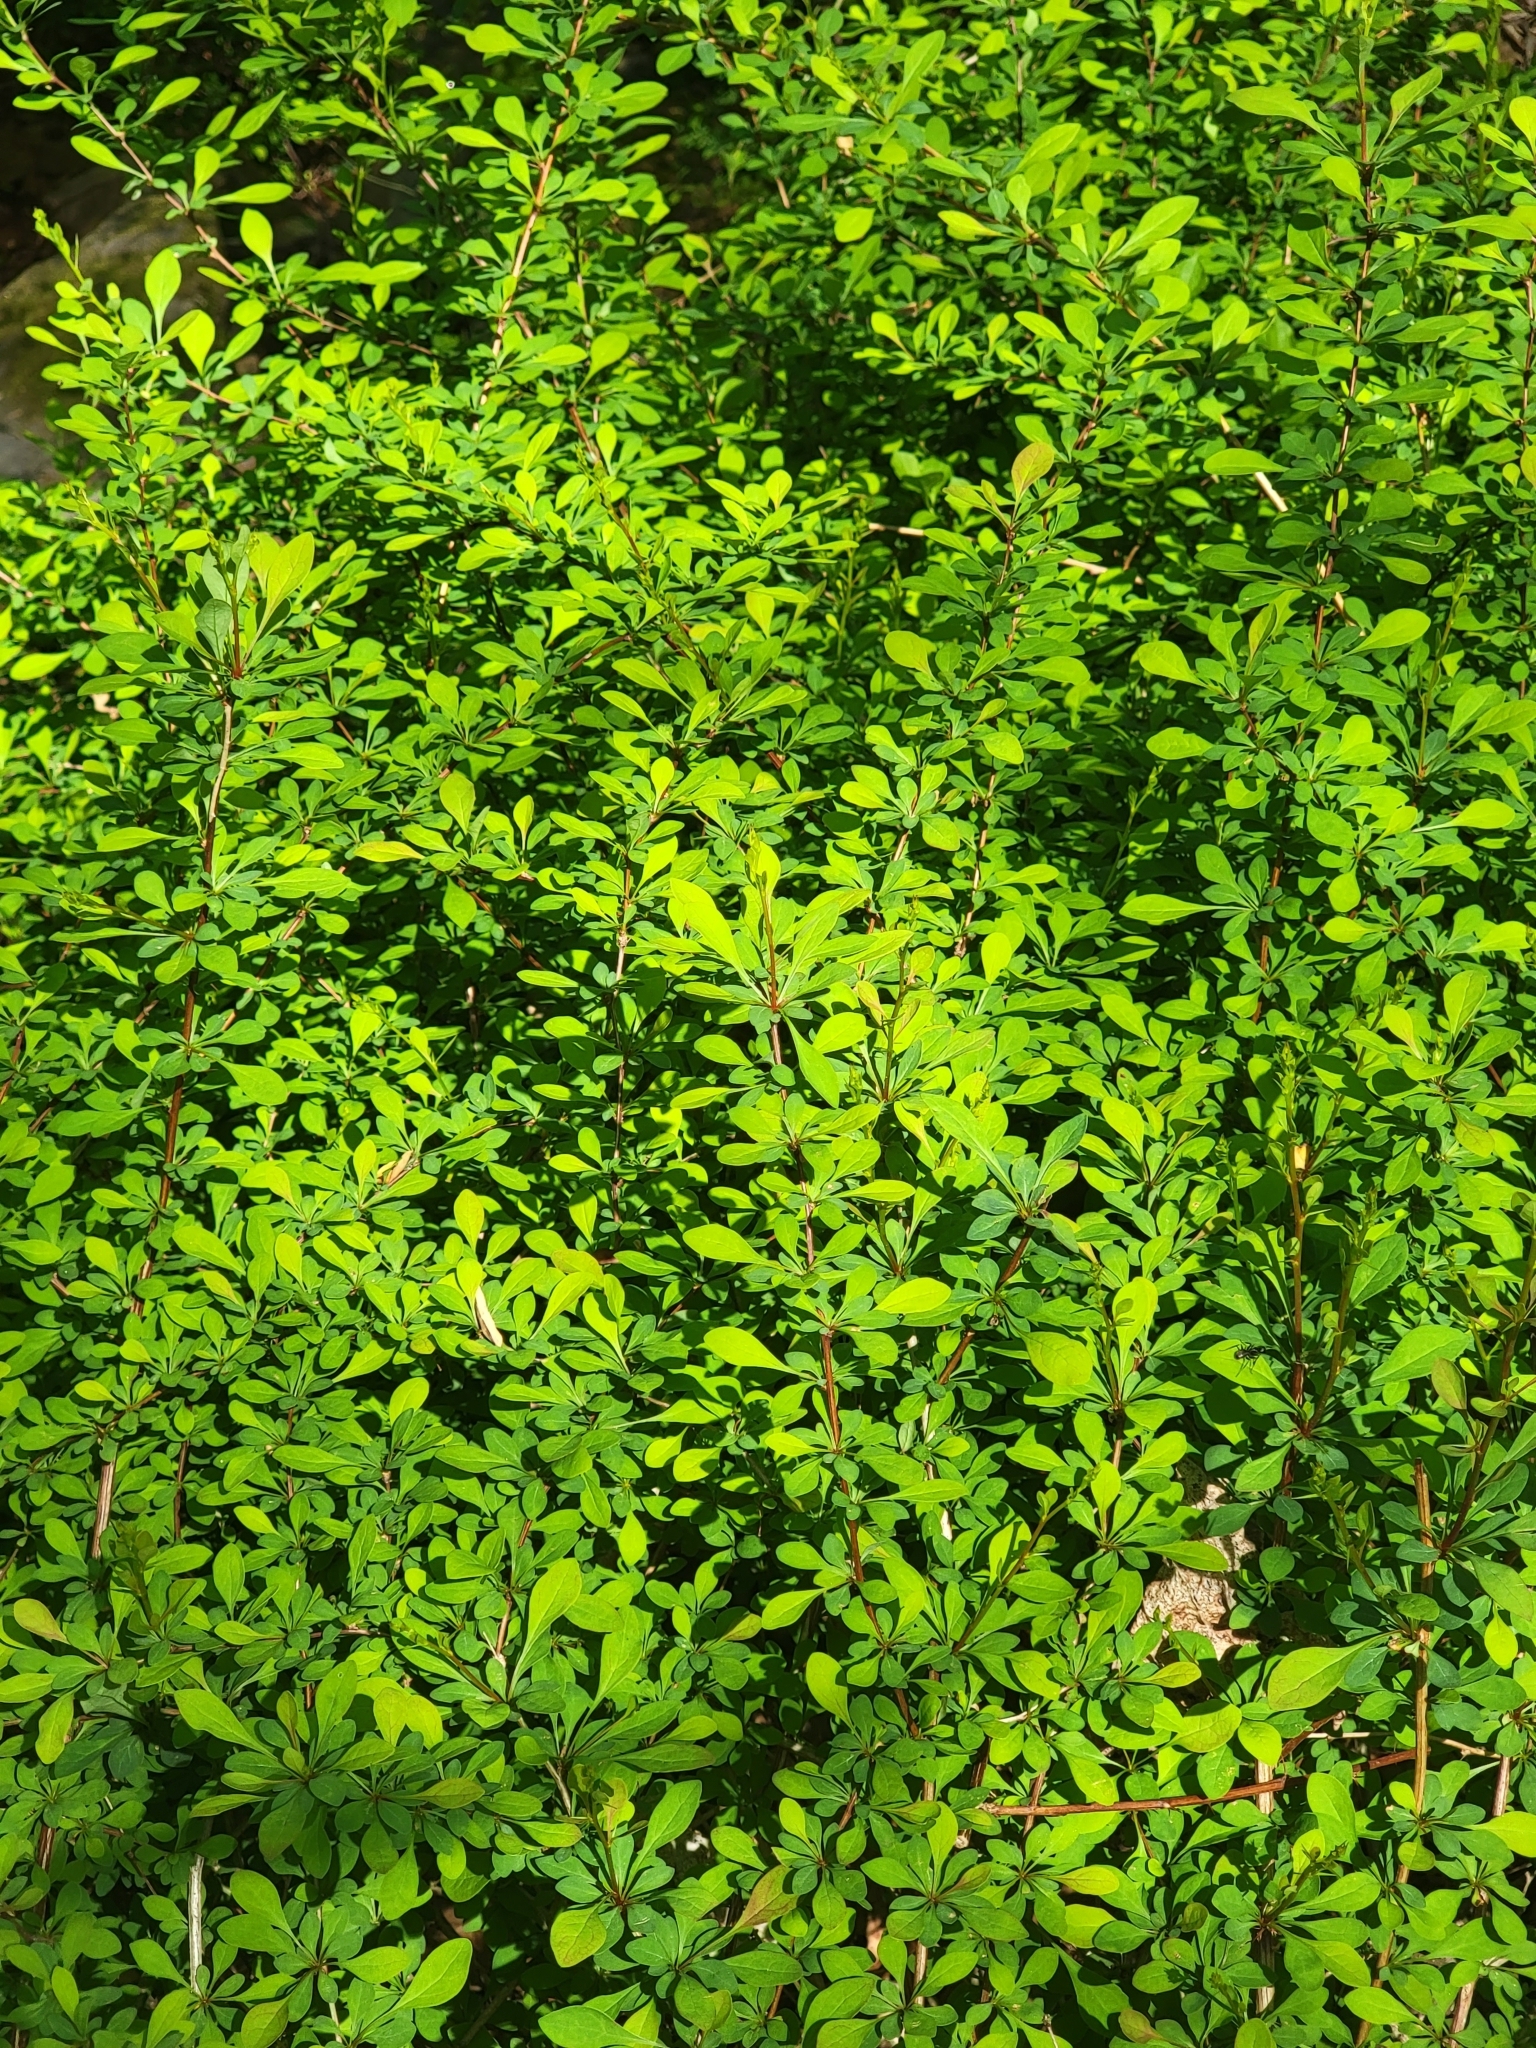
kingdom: Plantae
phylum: Tracheophyta
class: Magnoliopsida
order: Ranunculales
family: Berberidaceae
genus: Berberis
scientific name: Berberis thunbergii
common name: Japanese barberry
